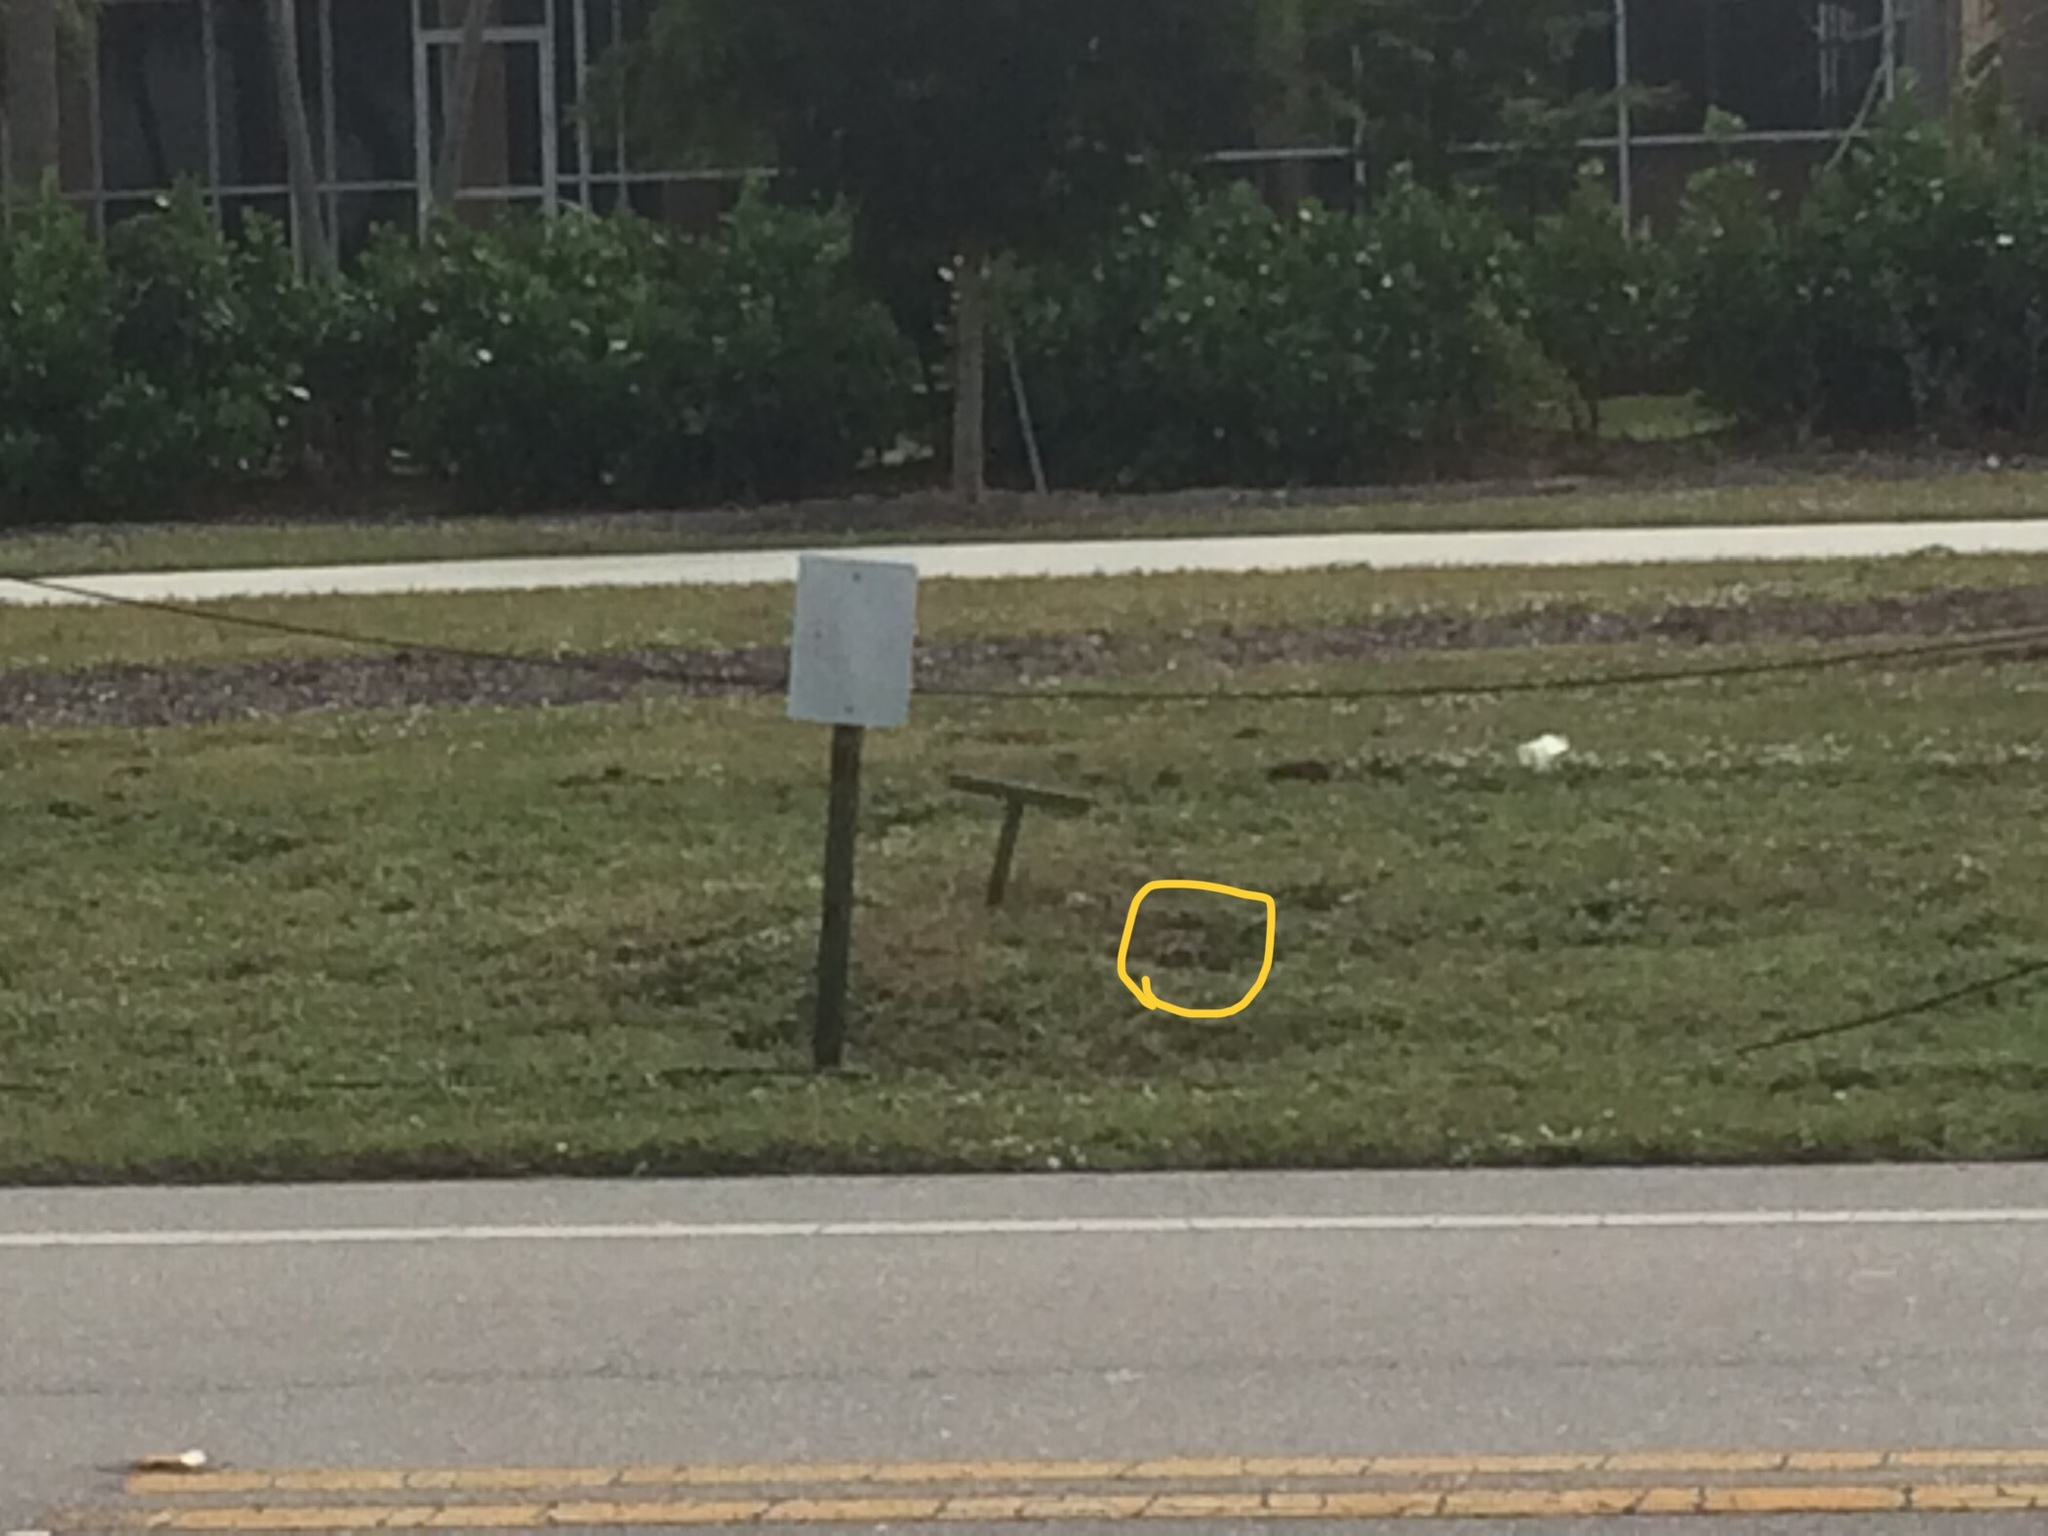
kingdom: Animalia
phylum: Chordata
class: Aves
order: Strigiformes
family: Strigidae
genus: Athene
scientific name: Athene cunicularia
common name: Burrowing owl
